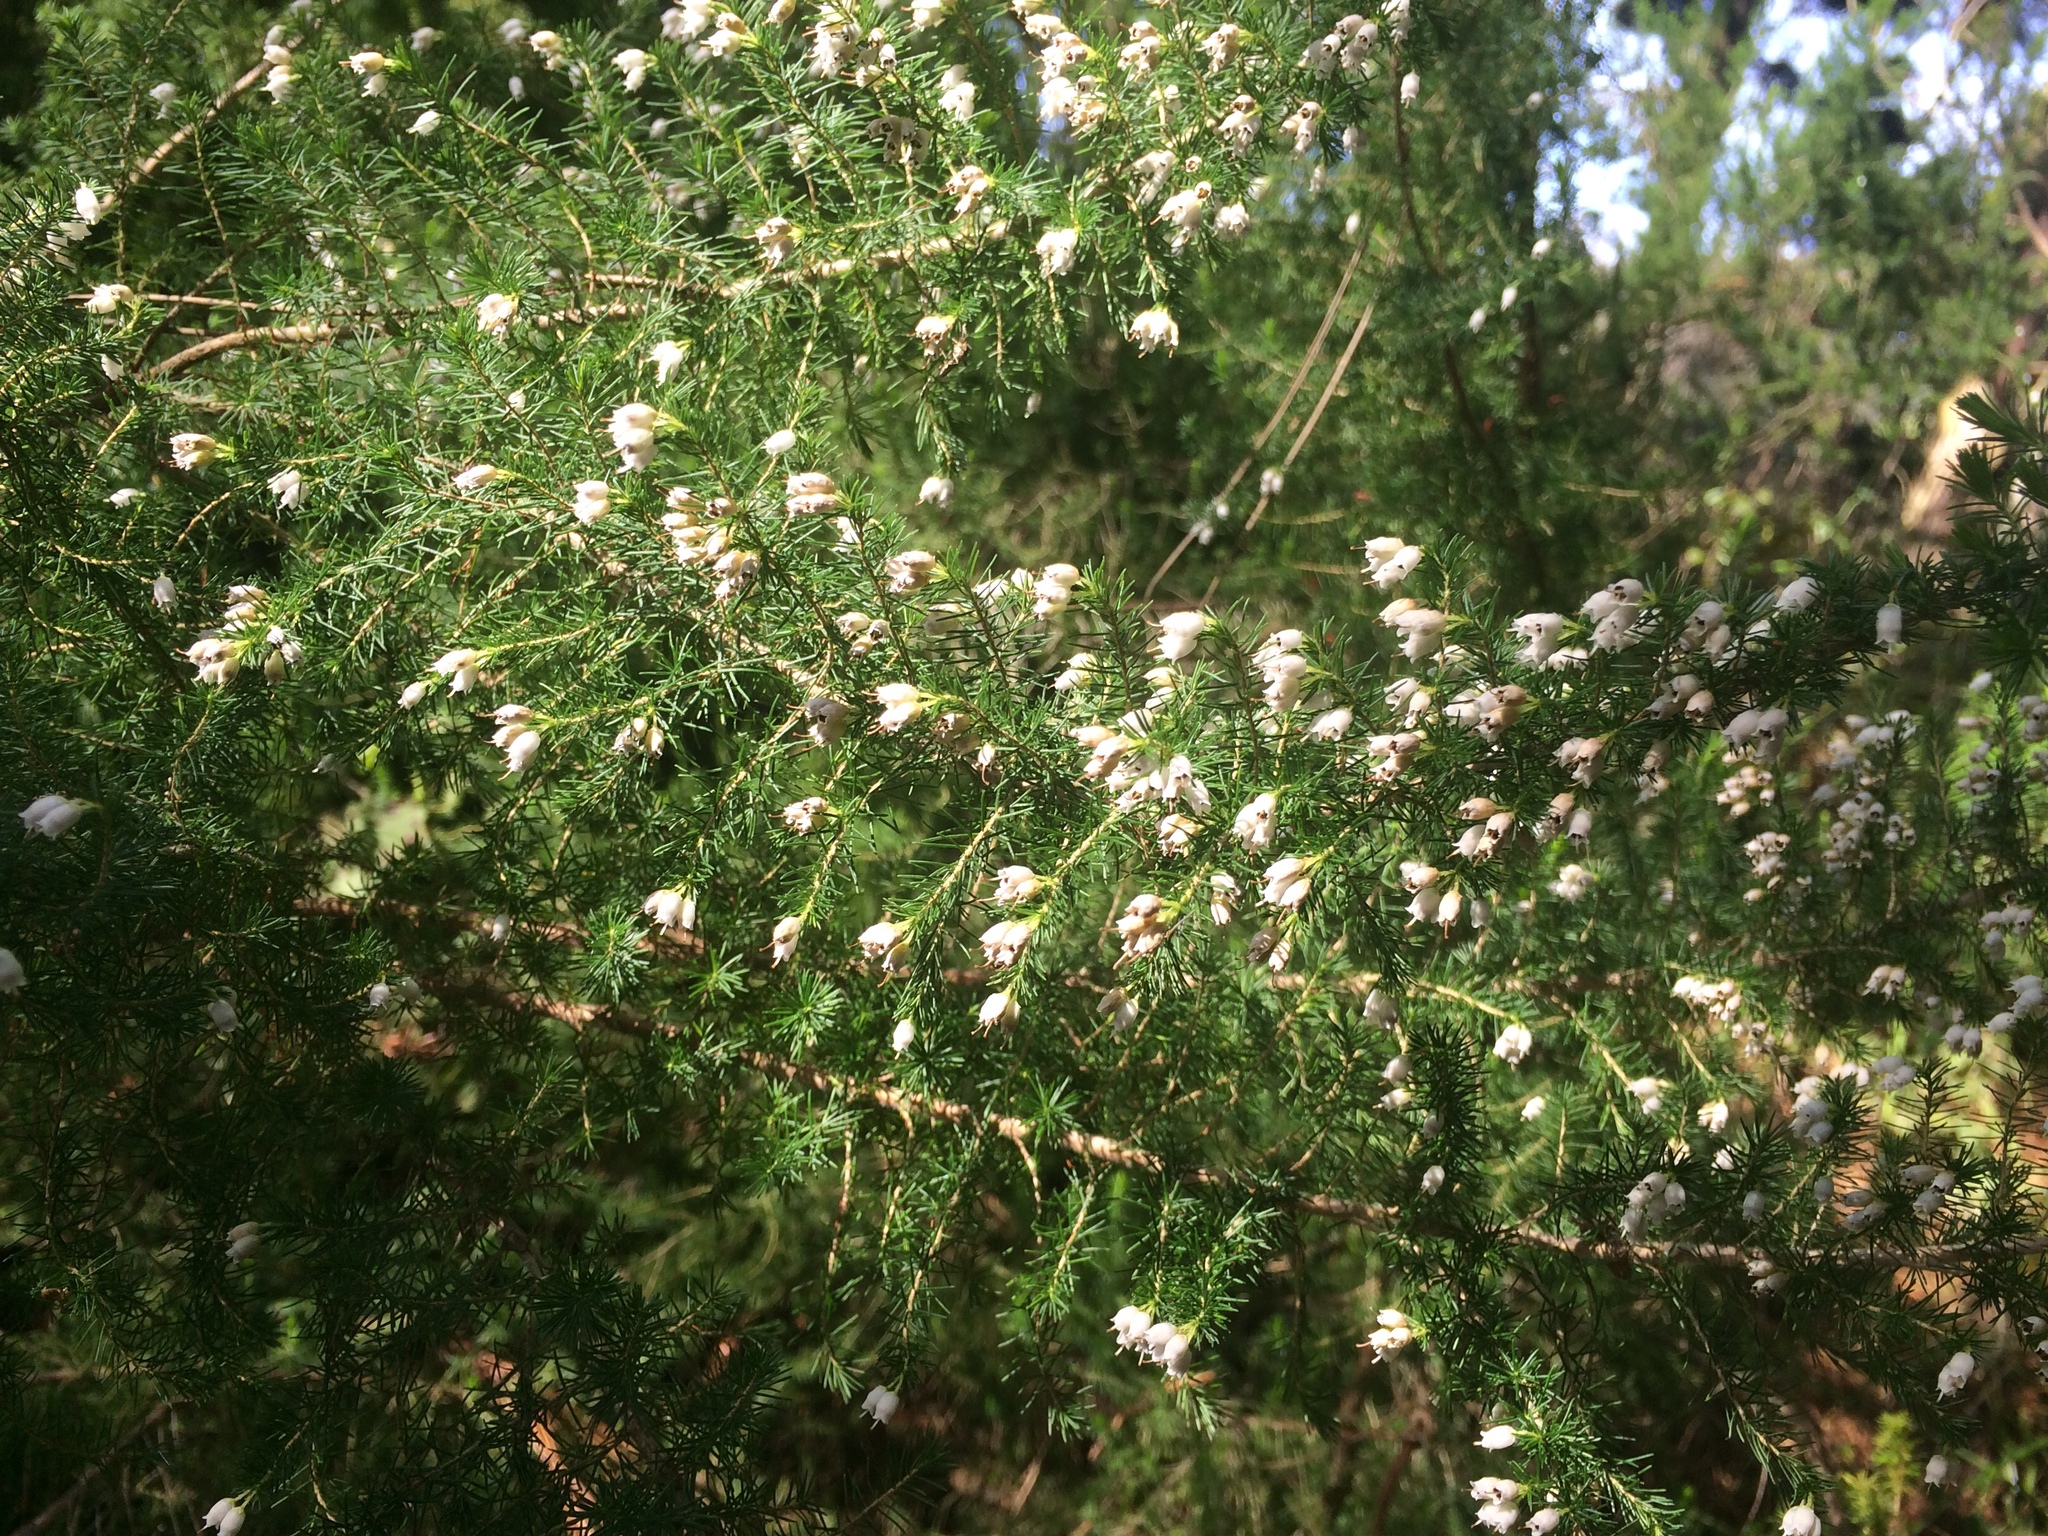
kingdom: Plantae
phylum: Tracheophyta
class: Magnoliopsida
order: Ericales
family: Ericaceae
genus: Erica
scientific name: Erica lusitanica
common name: Spanish heath
